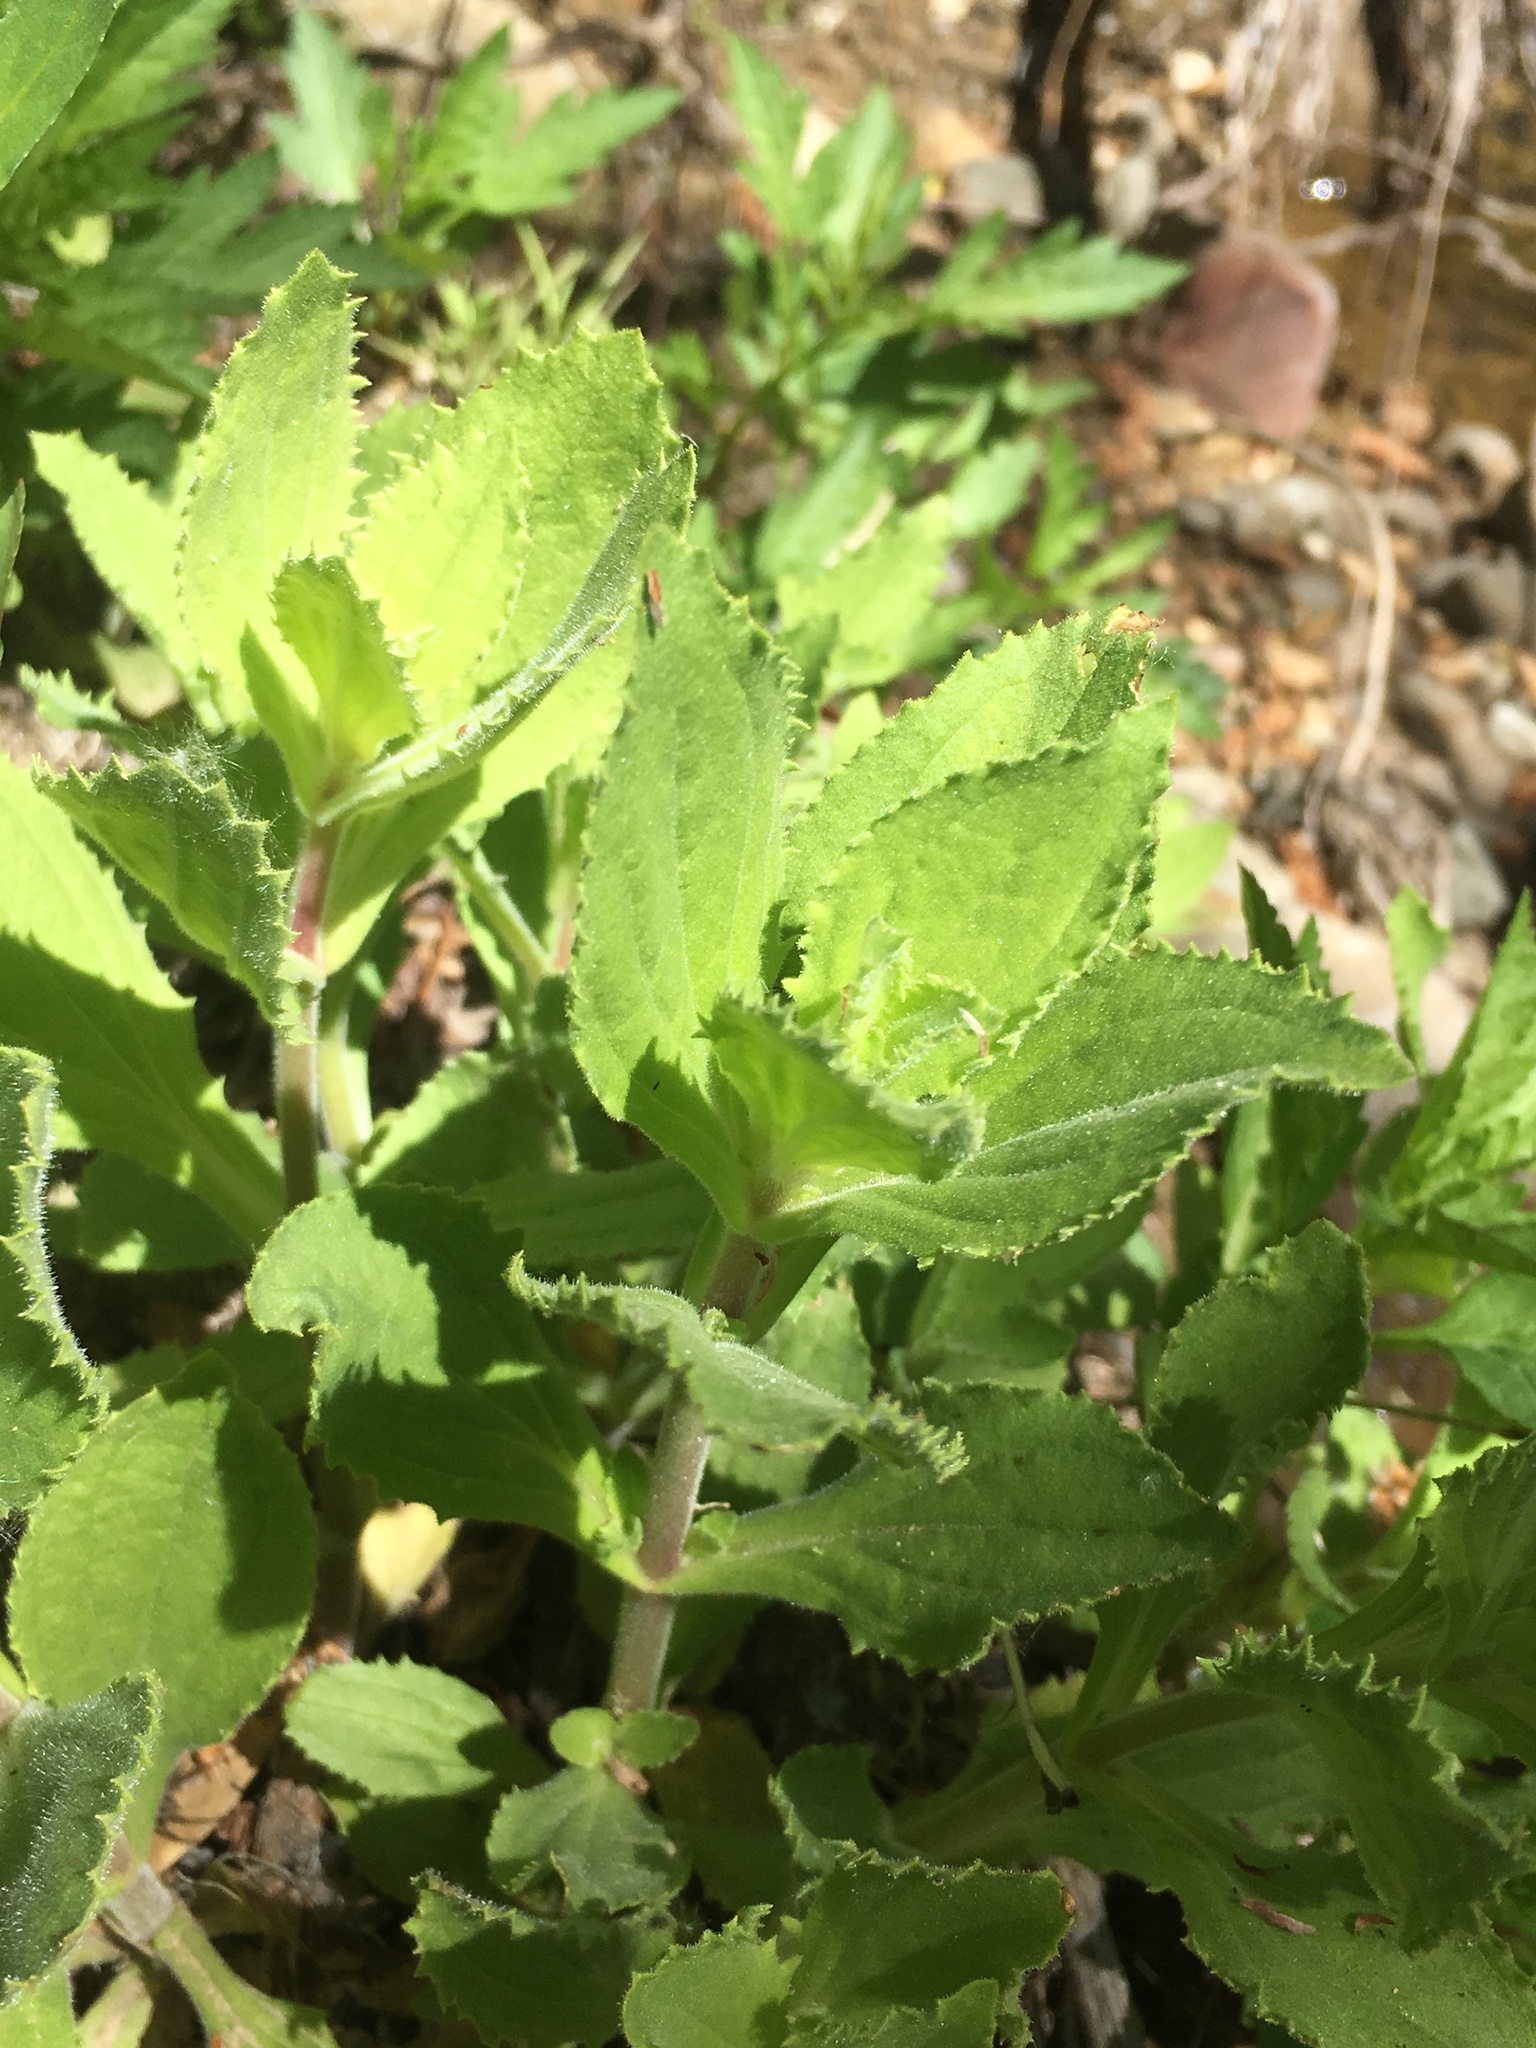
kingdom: Plantae
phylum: Tracheophyta
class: Magnoliopsida
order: Lamiales
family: Phrymaceae
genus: Erythranthe
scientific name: Erythranthe cardinalis
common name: Scarlet monkey-flower
